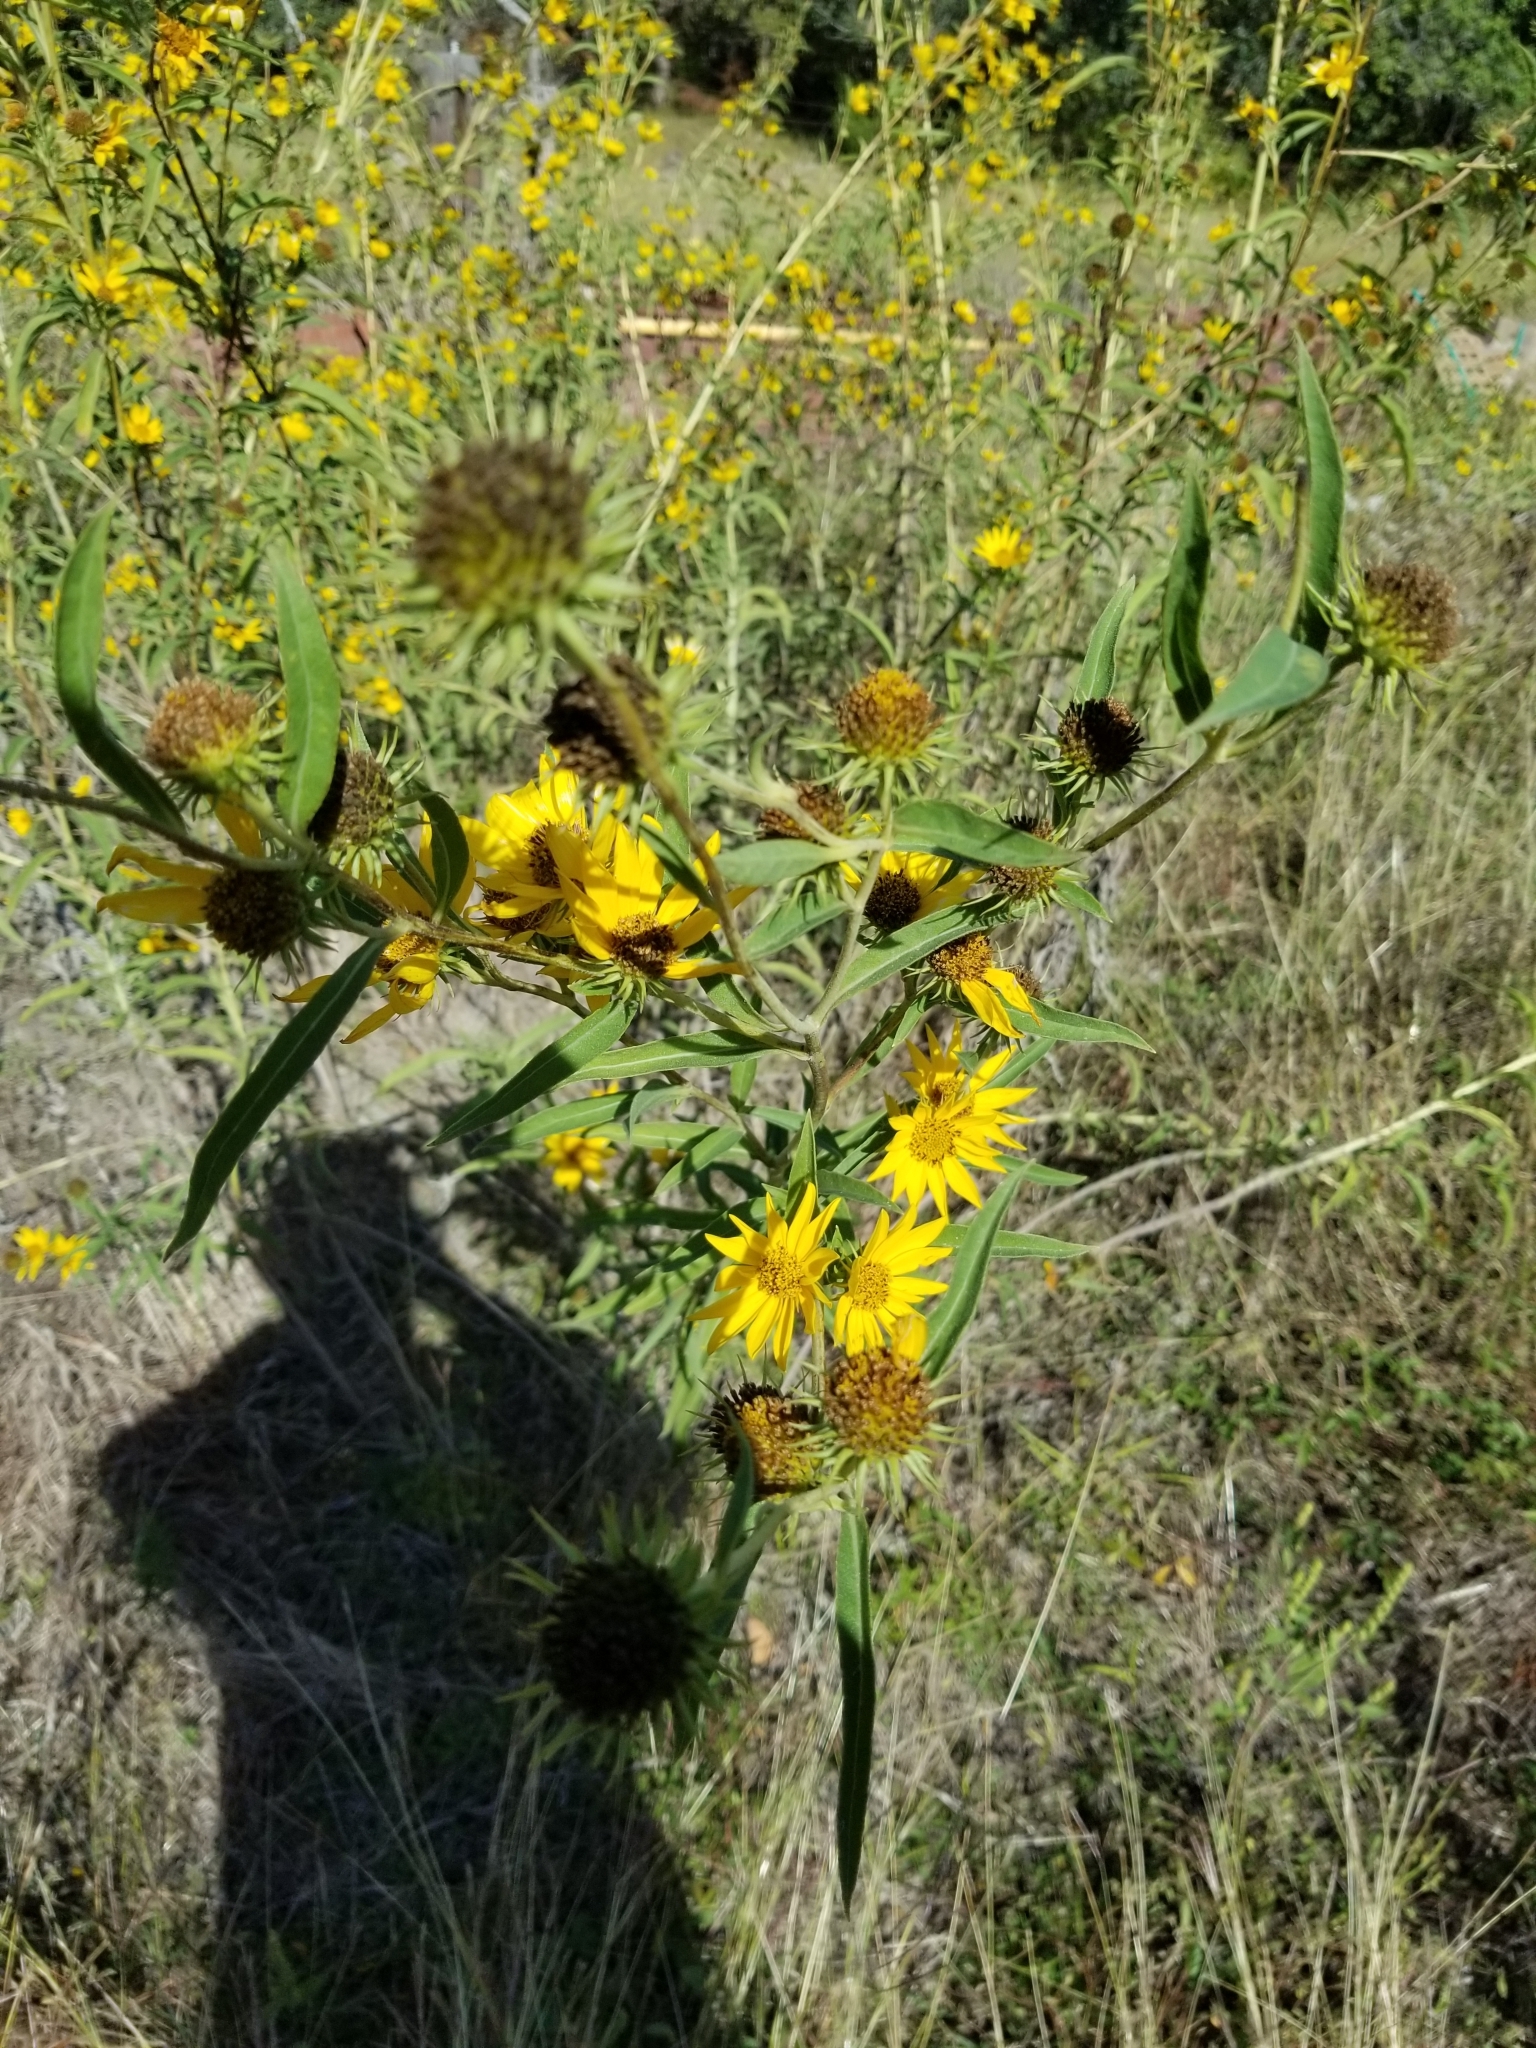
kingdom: Plantae
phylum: Tracheophyta
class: Magnoliopsida
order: Asterales
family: Asteraceae
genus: Helianthus
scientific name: Helianthus maximiliani
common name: Maximilian's sunflower
